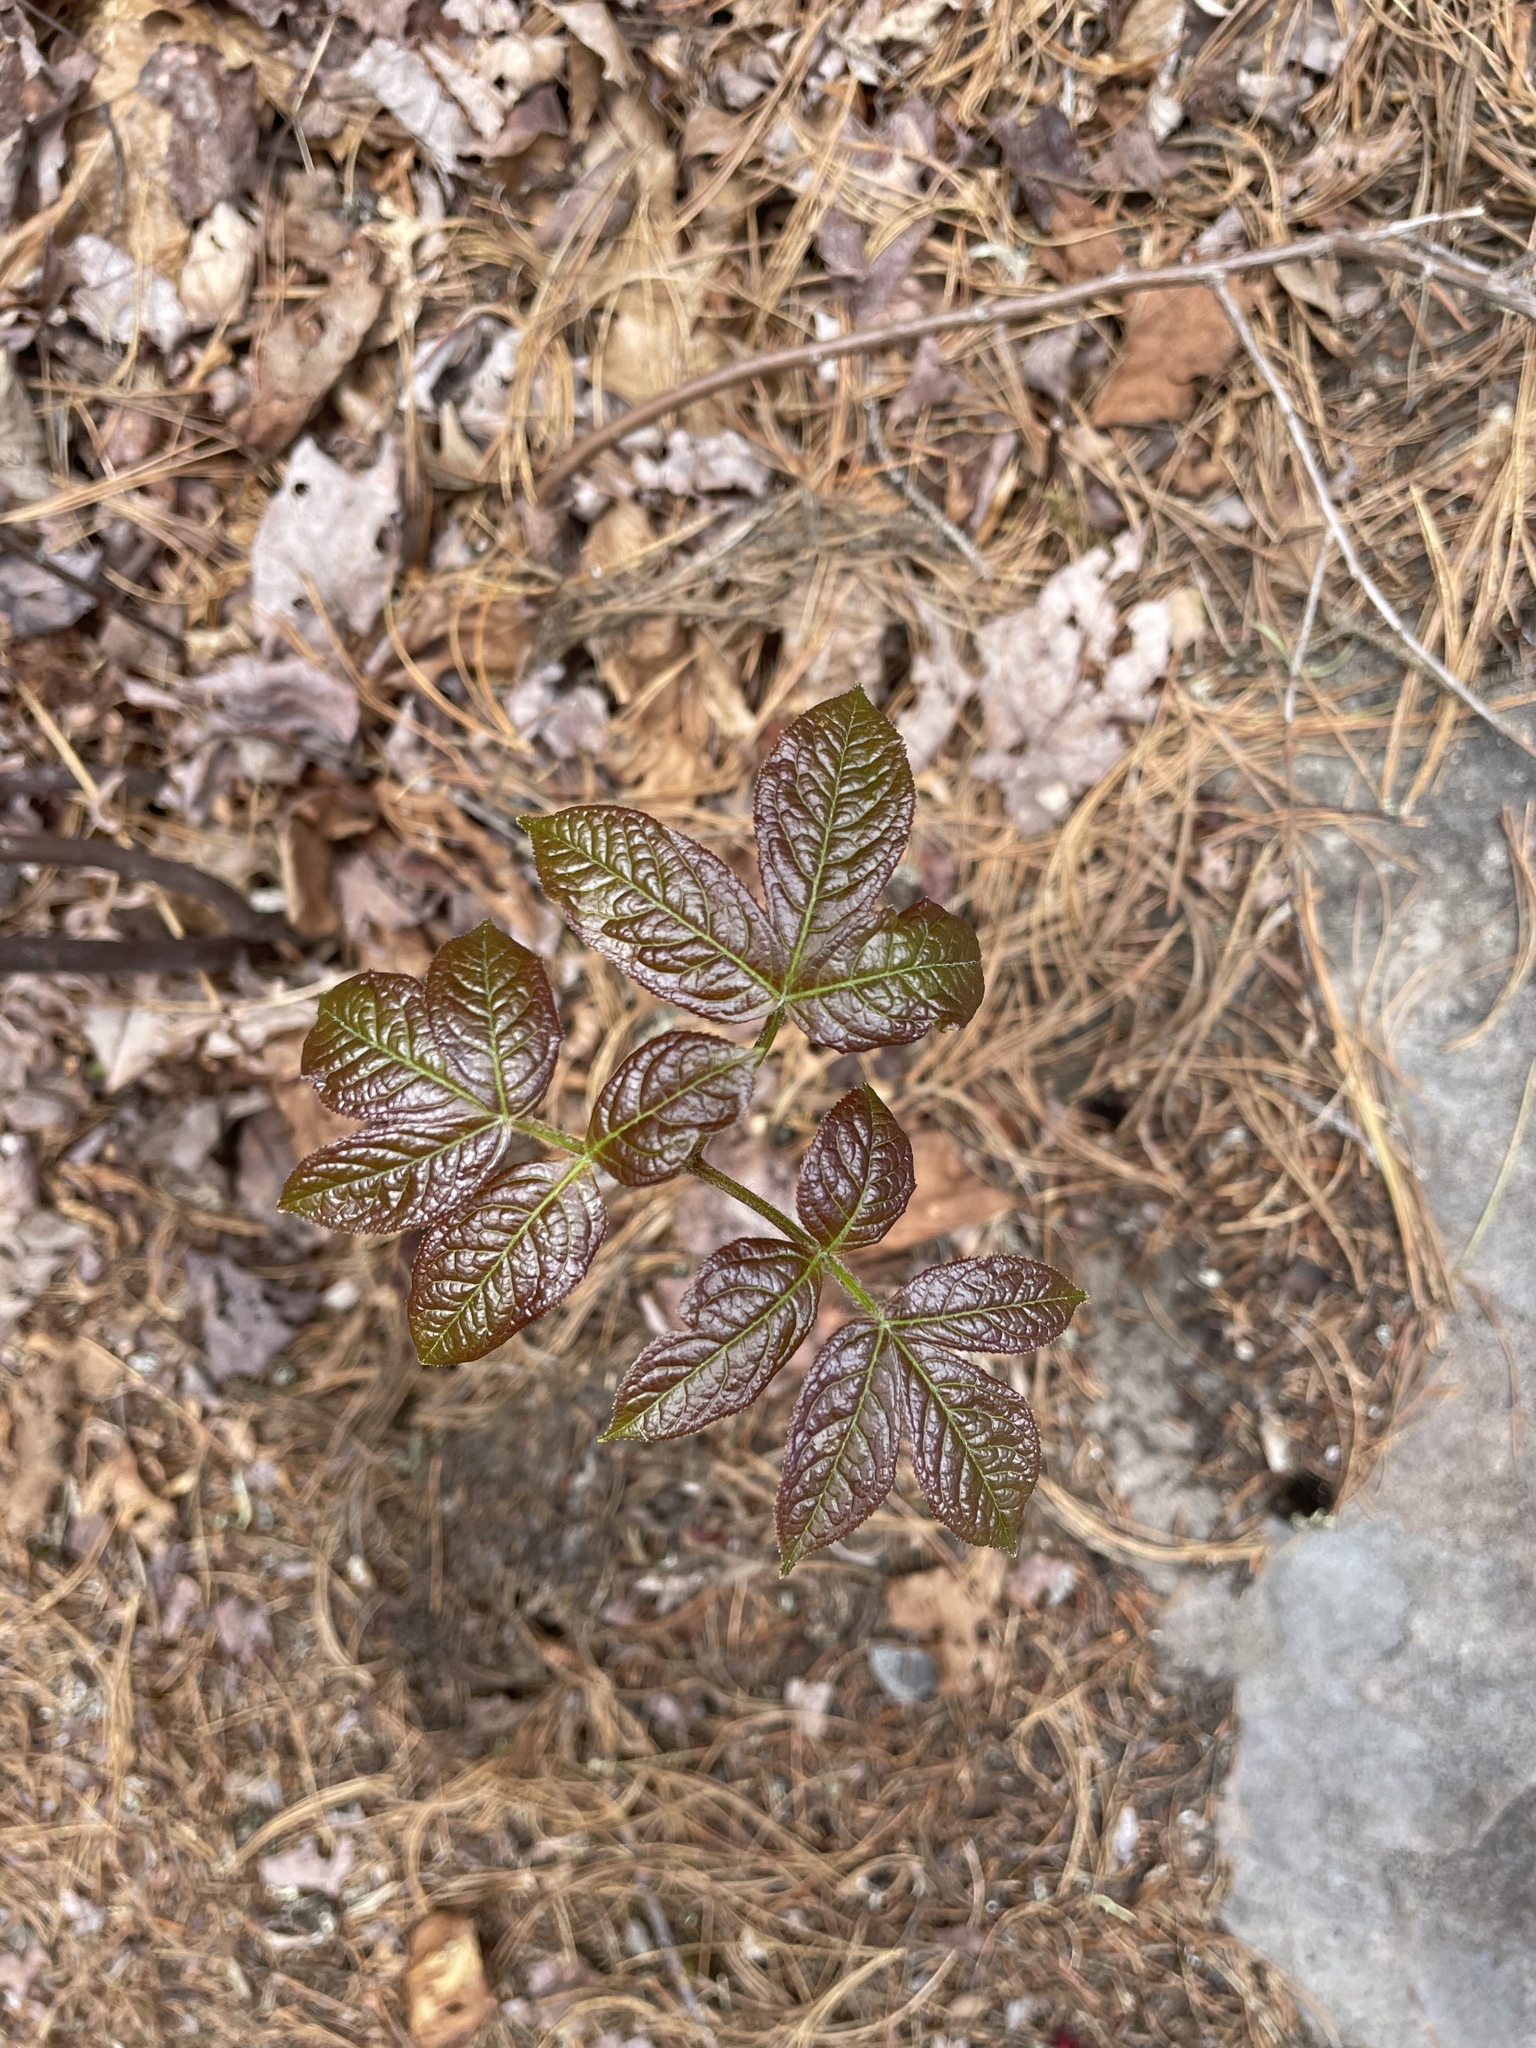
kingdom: Plantae
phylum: Tracheophyta
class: Magnoliopsida
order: Apiales
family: Araliaceae
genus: Aralia
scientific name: Aralia nudicaulis
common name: Wild sarsaparilla
